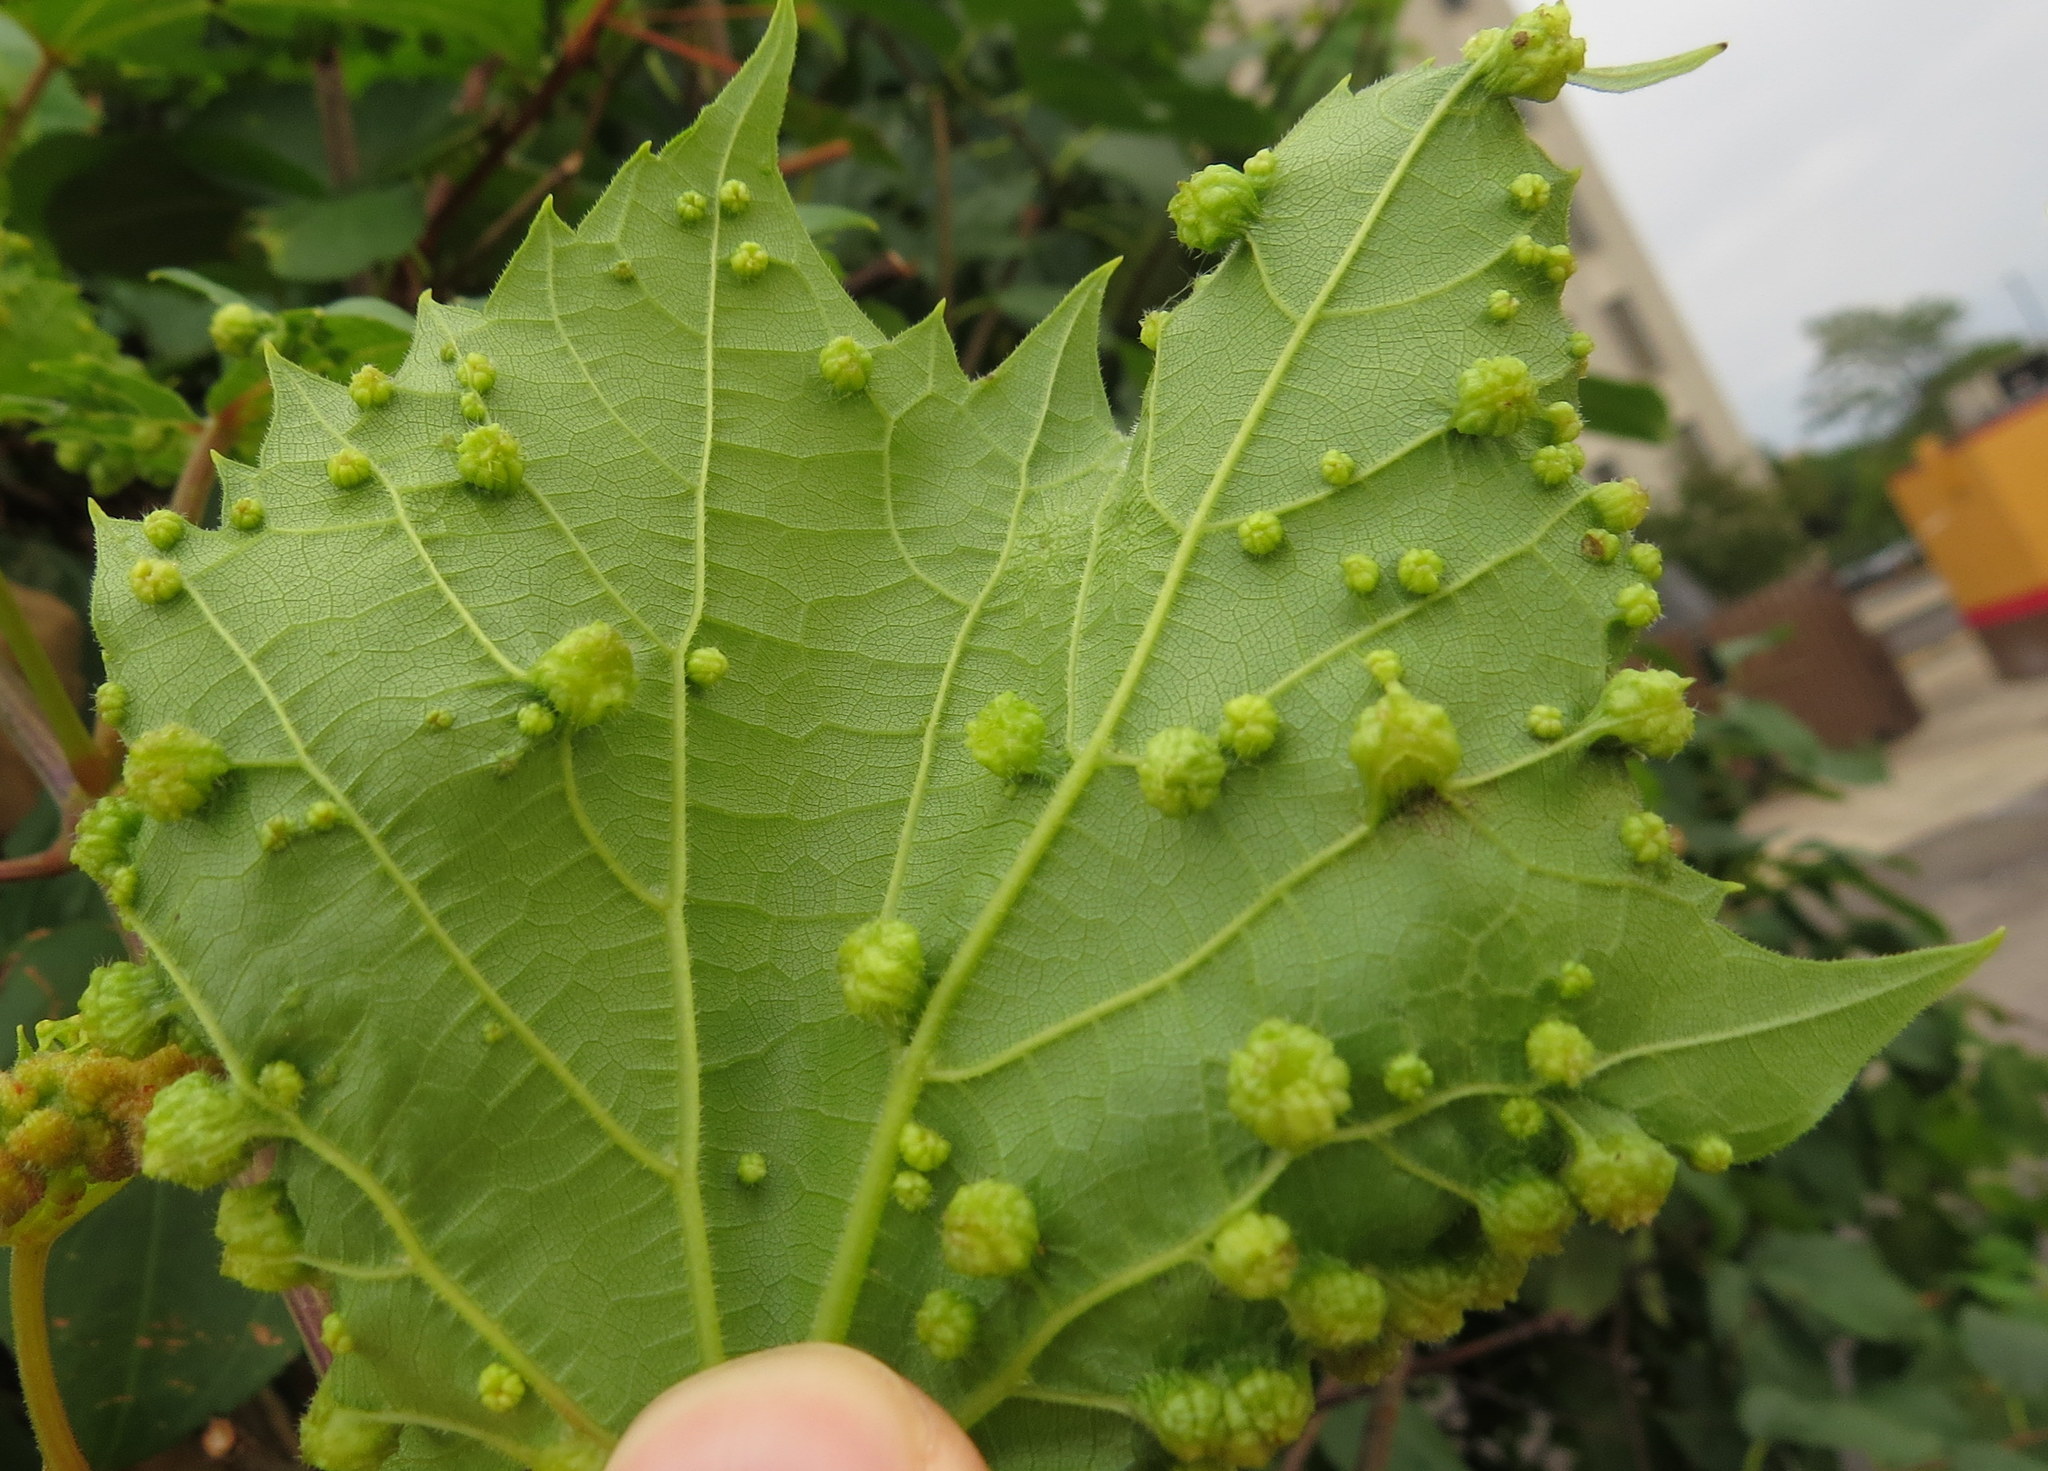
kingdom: Animalia
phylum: Arthropoda
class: Insecta
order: Hemiptera
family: Phylloxeridae
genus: Daktulosphaira
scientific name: Daktulosphaira vitifoliae
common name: Grape phylloxera
